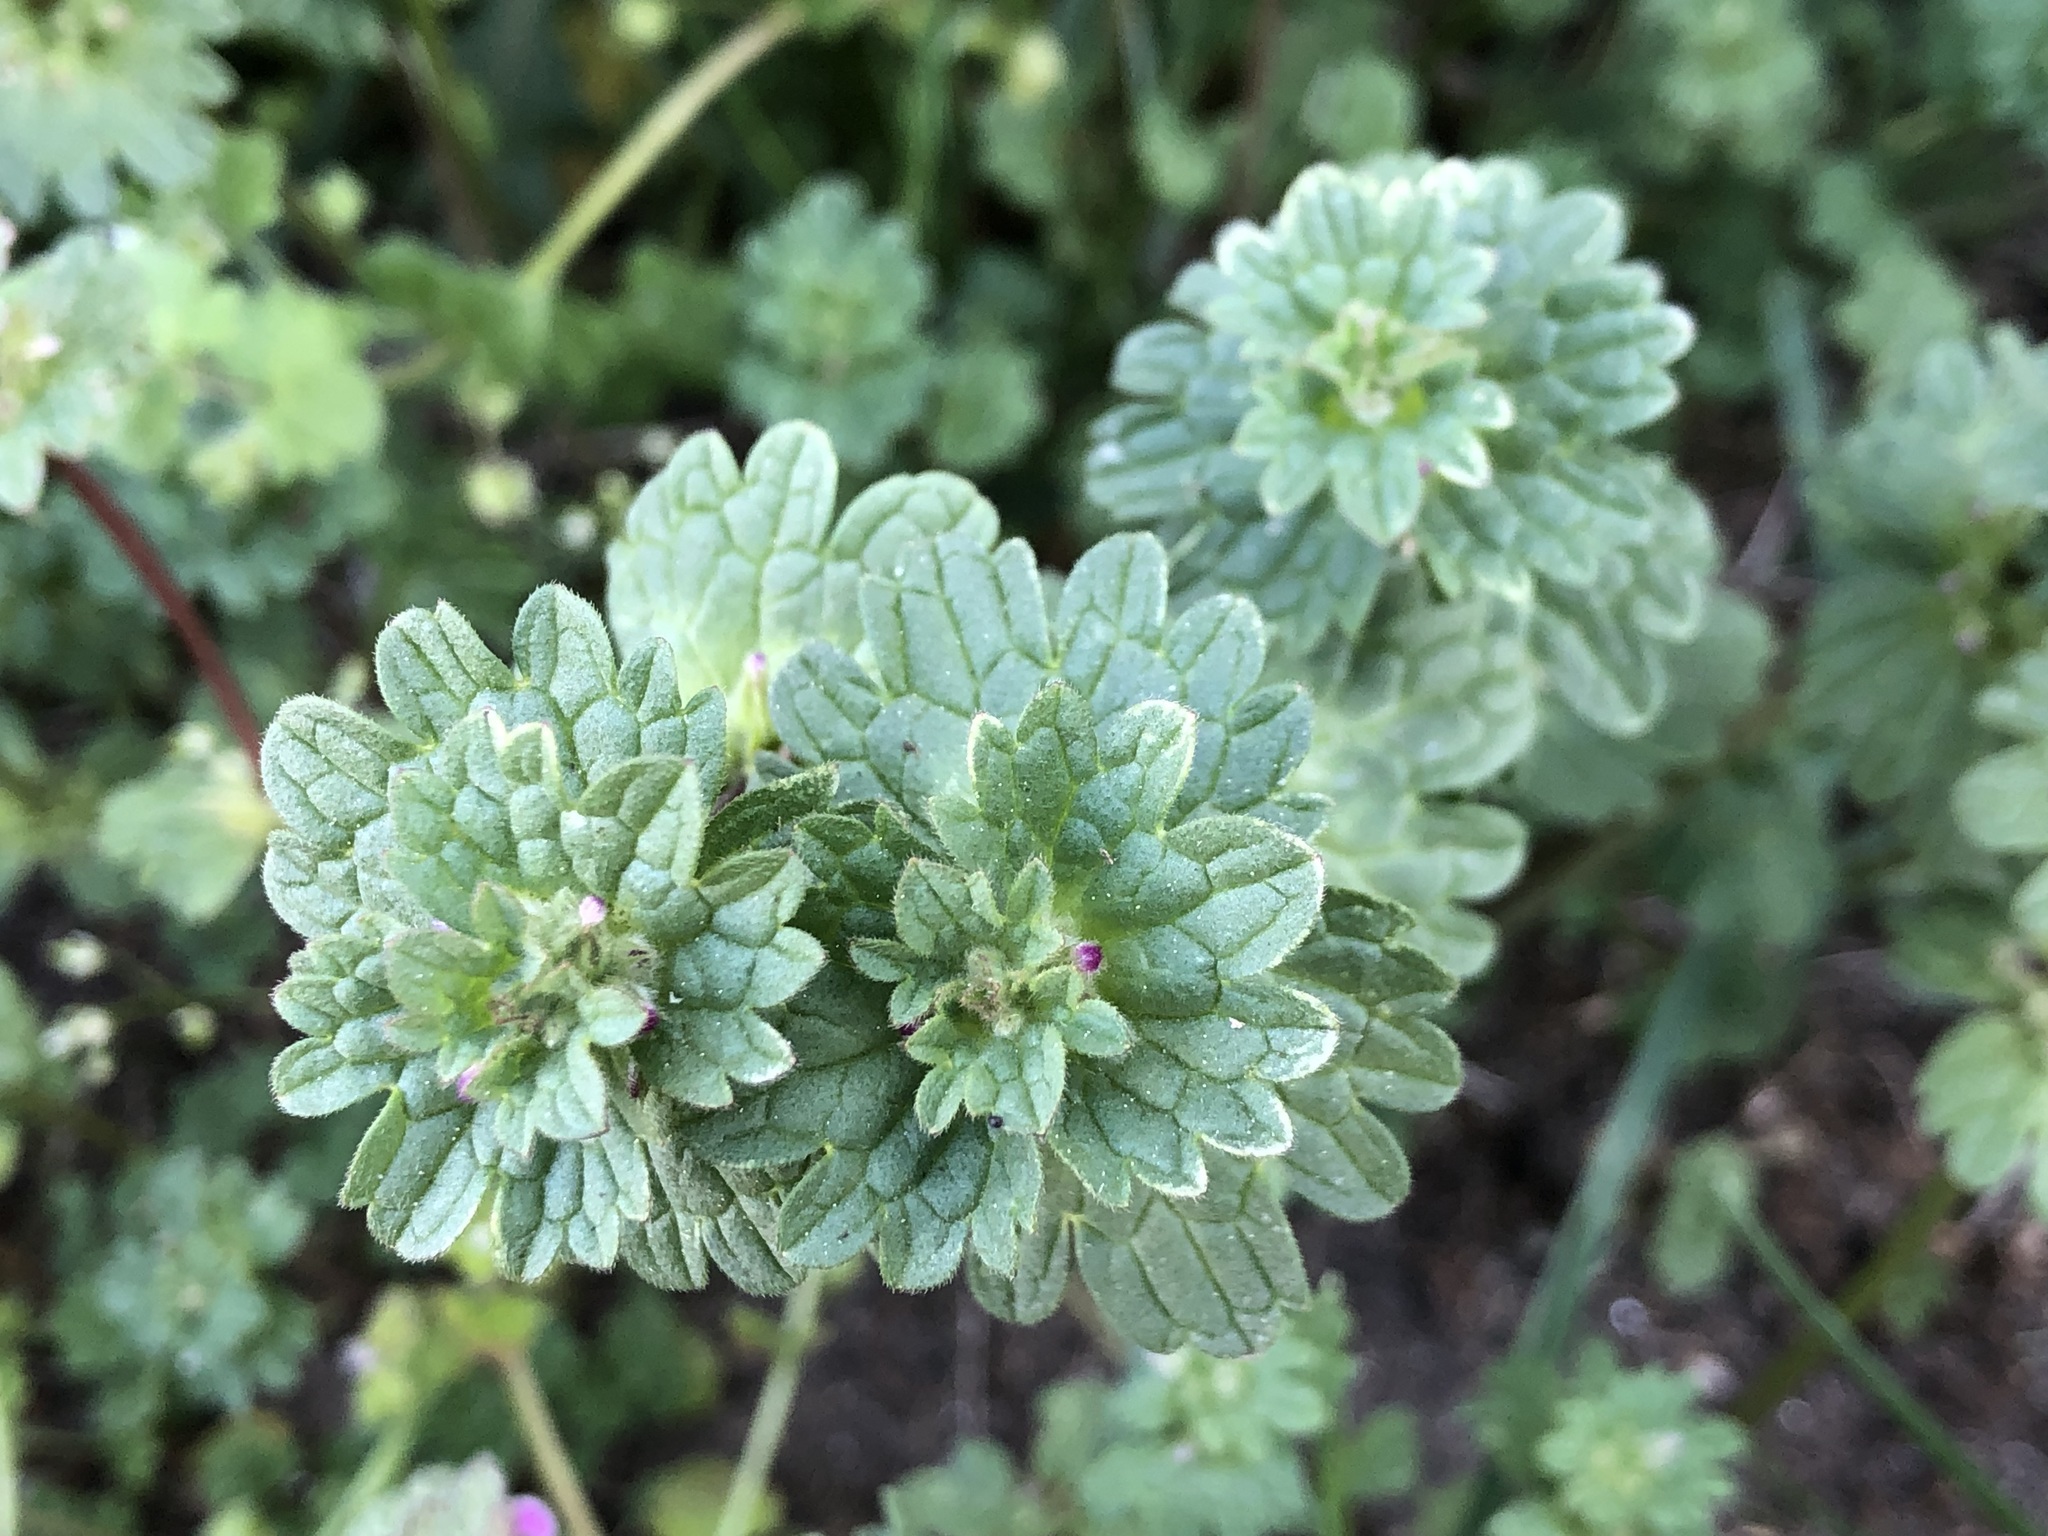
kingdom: Plantae
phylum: Tracheophyta
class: Magnoliopsida
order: Lamiales
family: Lamiaceae
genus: Lamium
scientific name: Lamium amplexicaule
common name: Henbit dead-nettle
